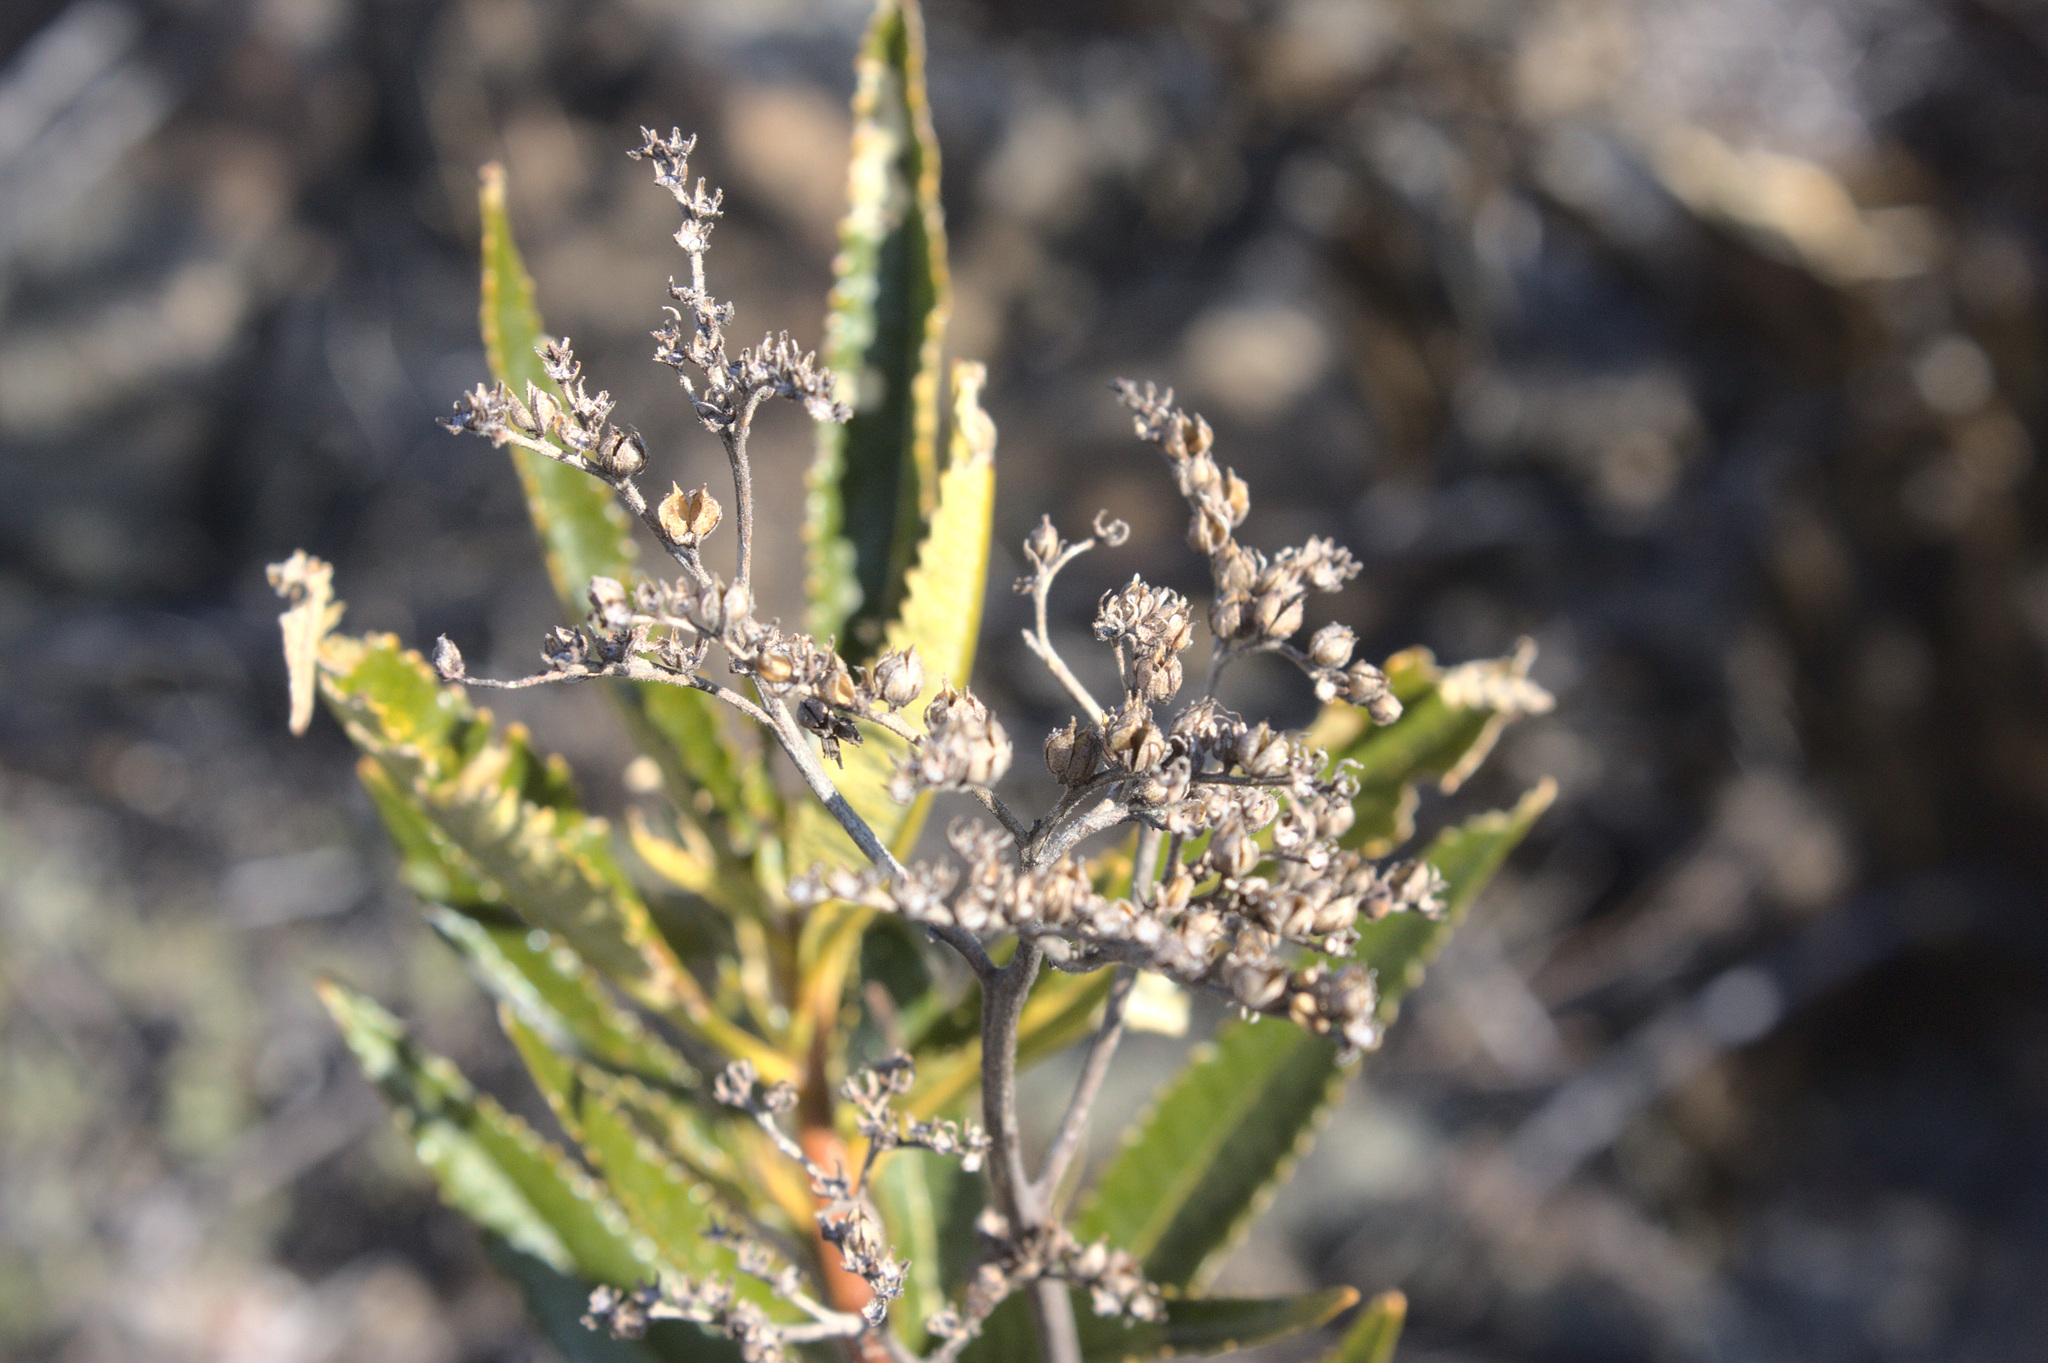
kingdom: Plantae
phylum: Tracheophyta
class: Magnoliopsida
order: Boraginales
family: Namaceae
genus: Eriodictyon
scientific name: Eriodictyon californicum
